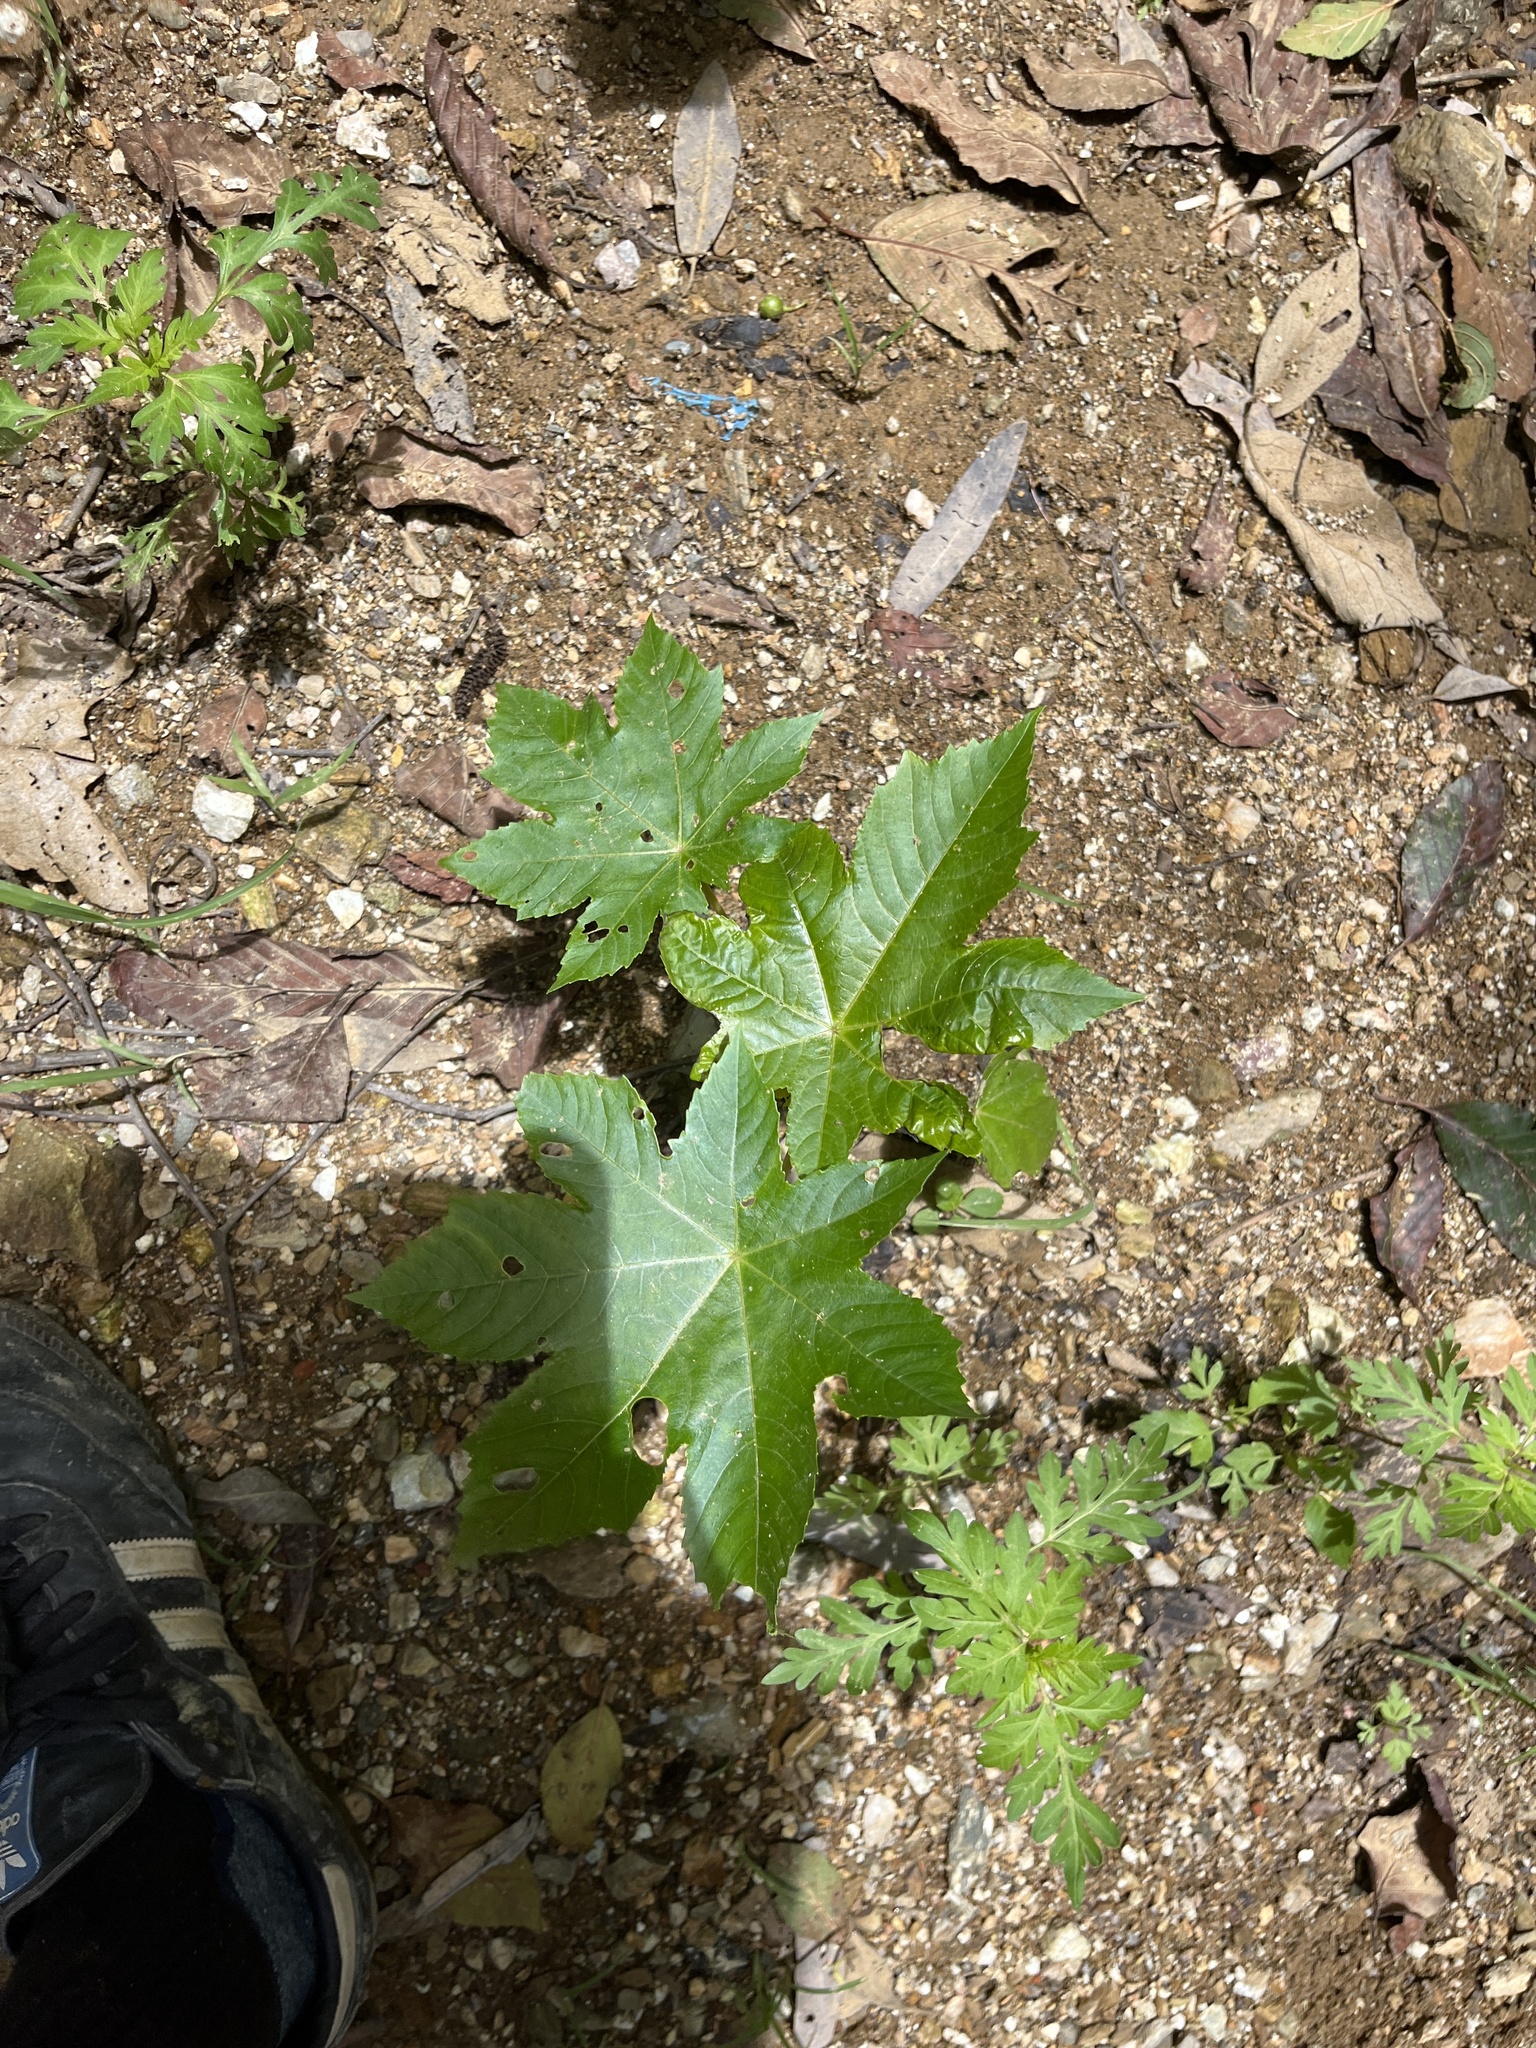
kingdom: Plantae
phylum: Tracheophyta
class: Magnoliopsida
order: Malpighiales
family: Euphorbiaceae
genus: Ricinus
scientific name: Ricinus communis
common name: Castor-oil-plant
